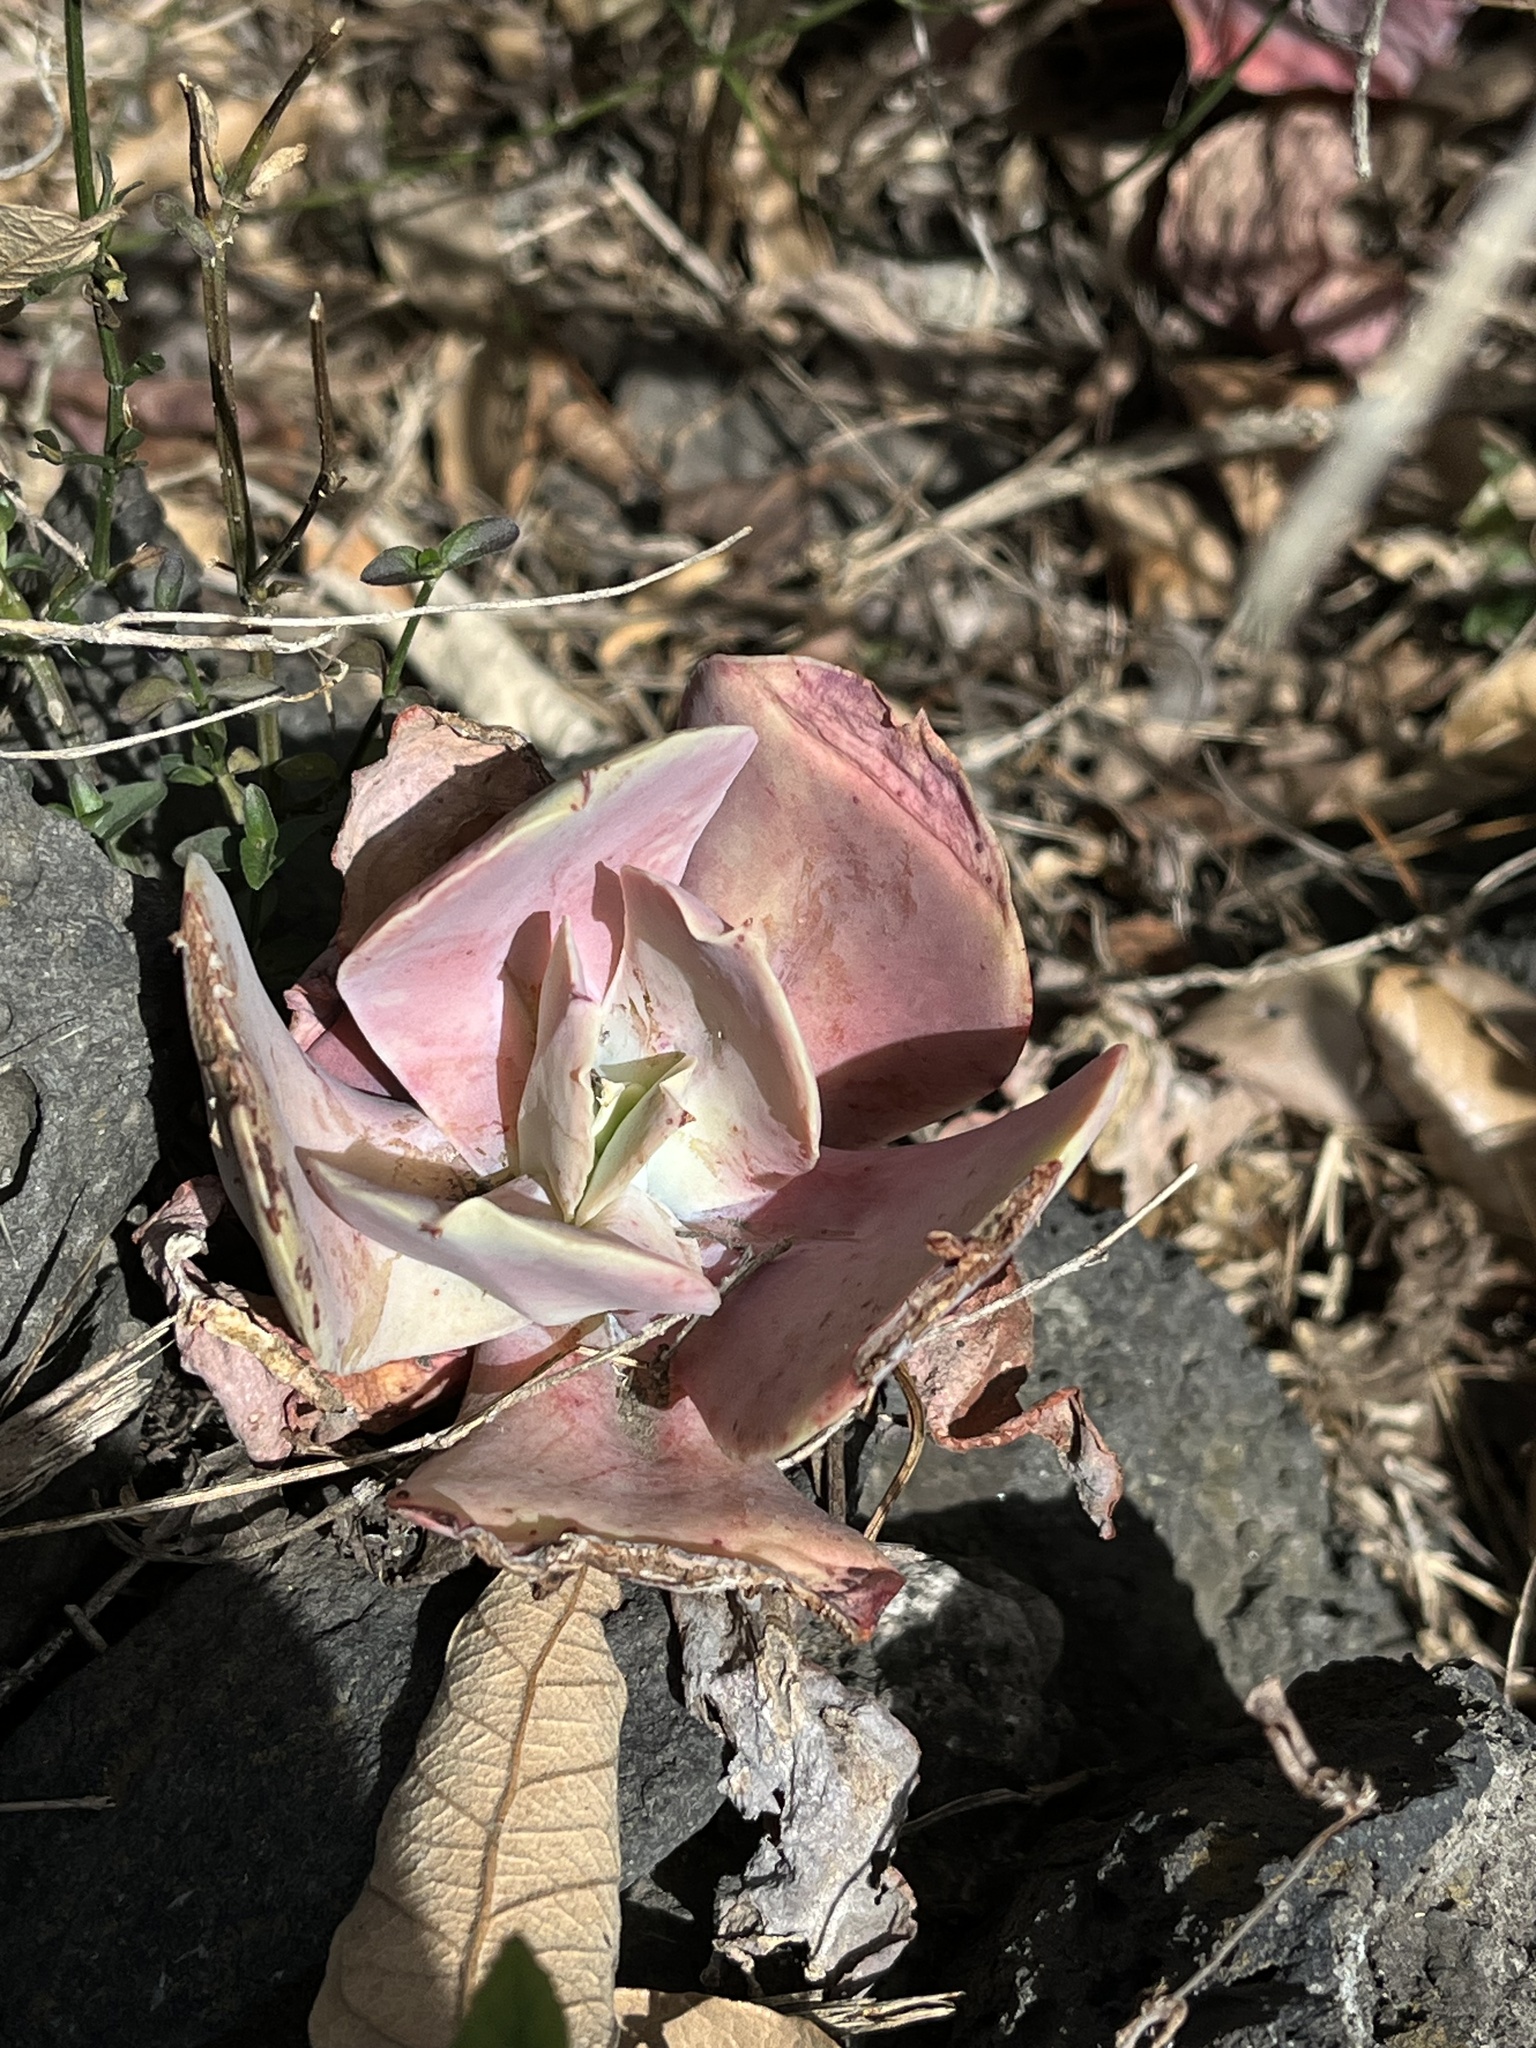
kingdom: Plantae
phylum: Tracheophyta
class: Magnoliopsida
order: Saxifragales
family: Crassulaceae
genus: Echeveria
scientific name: Echeveria gibbiflora
